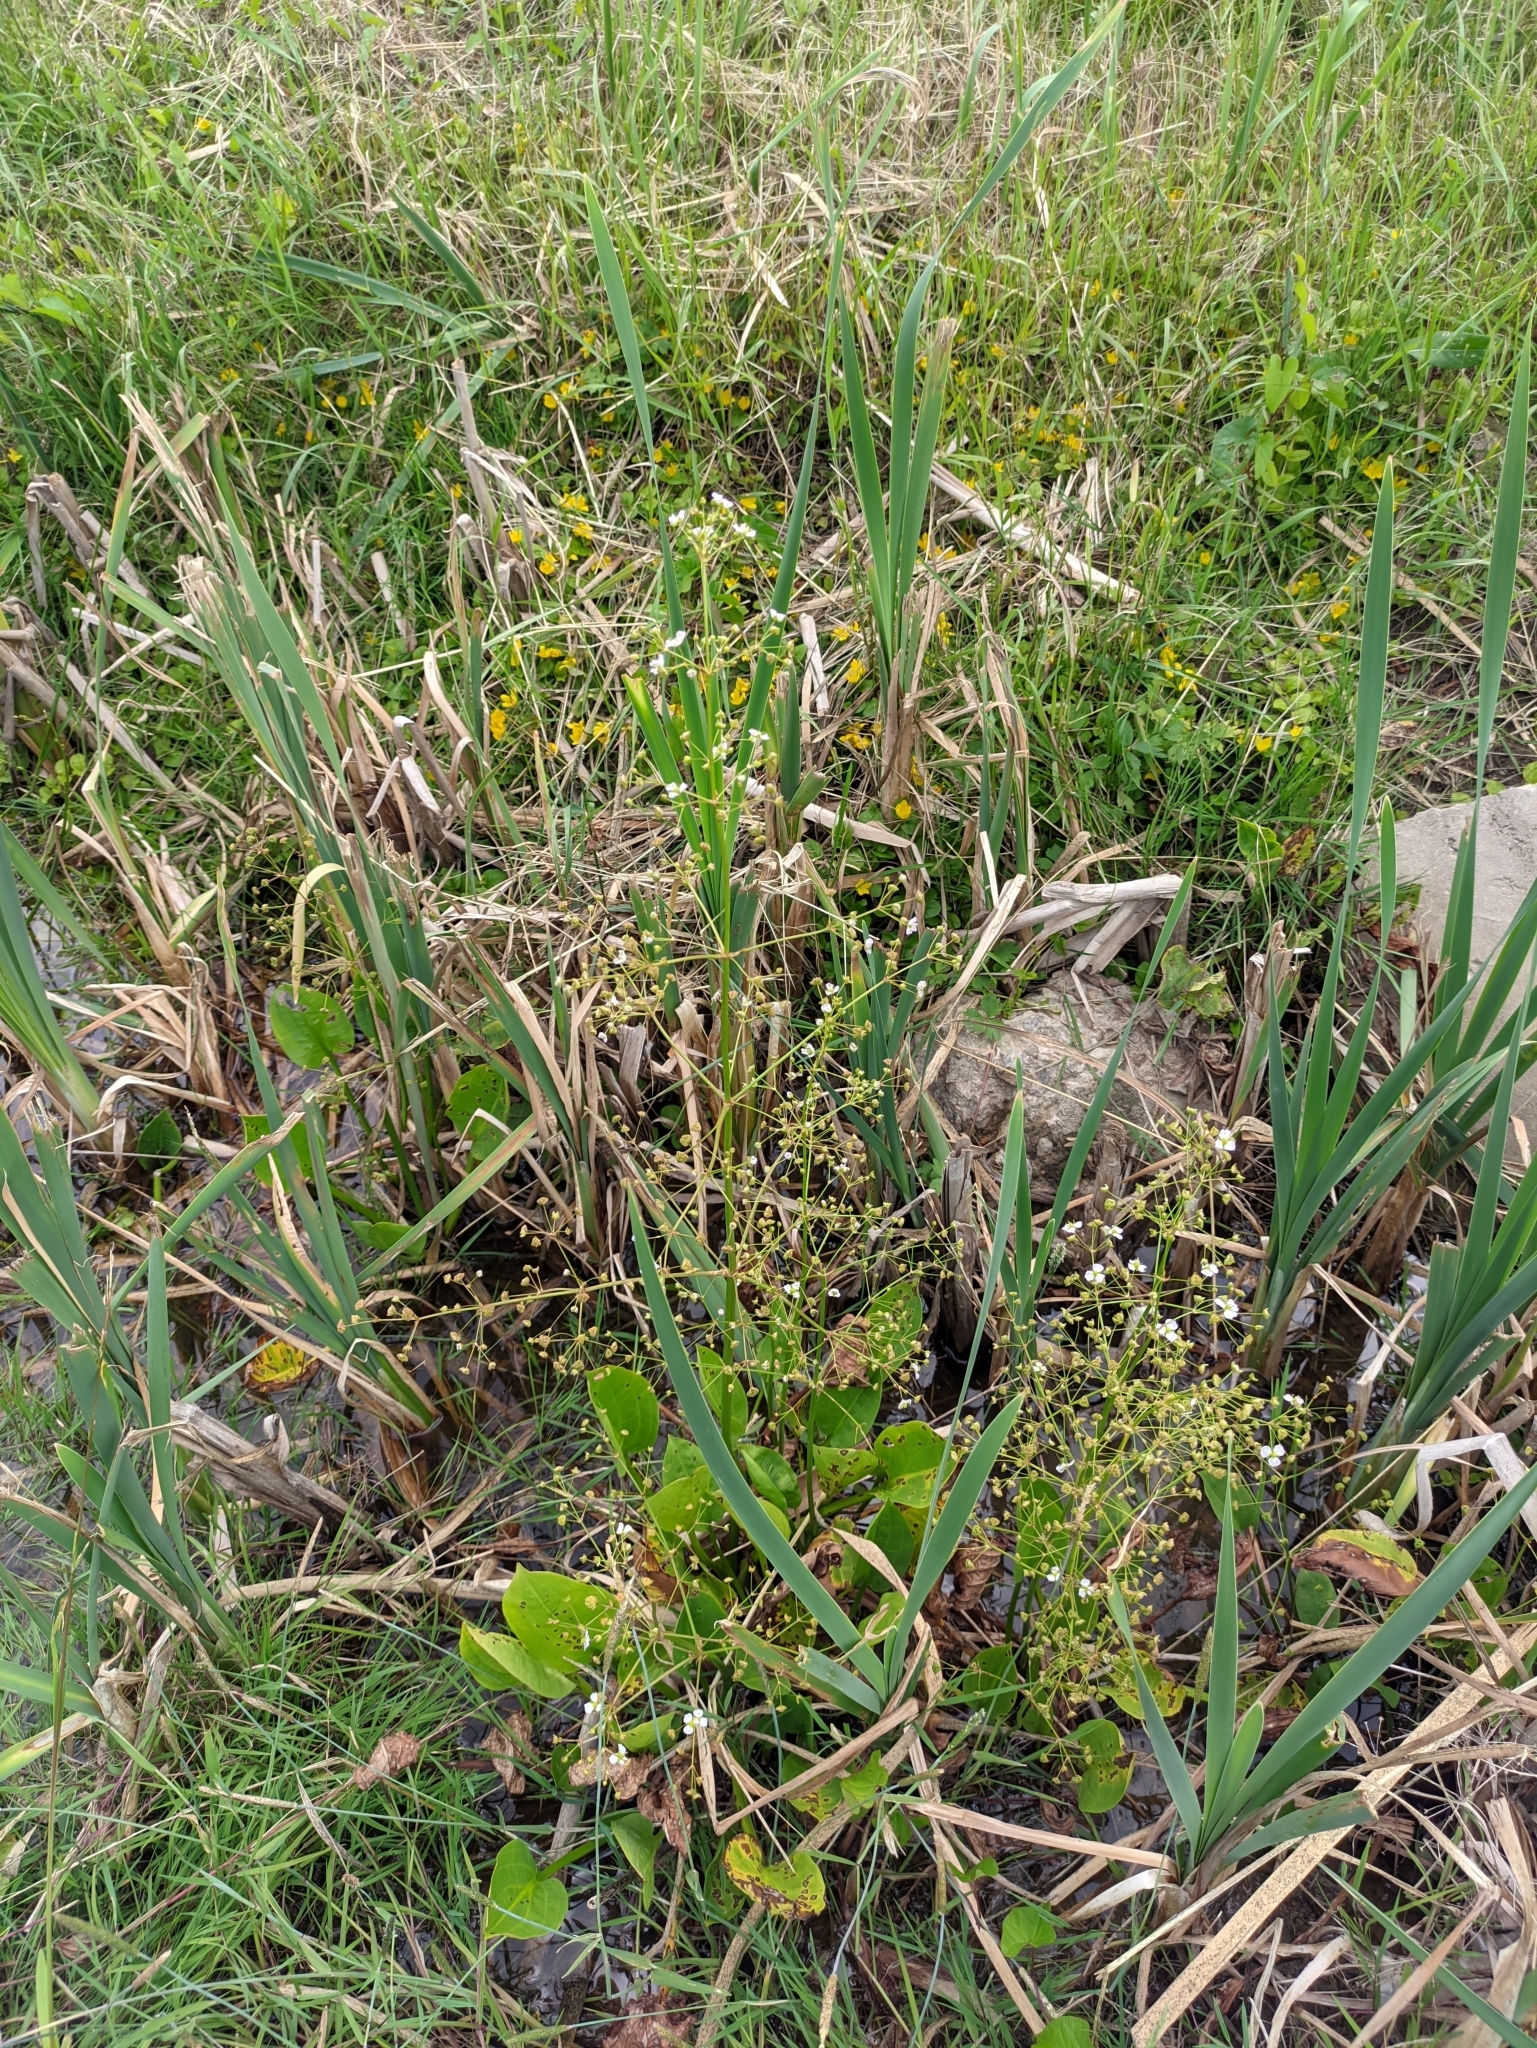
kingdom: Plantae
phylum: Tracheophyta
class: Liliopsida
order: Alismatales
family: Alismataceae
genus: Alisma
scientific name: Alisma plantago-aquatica
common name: Water-plantain
